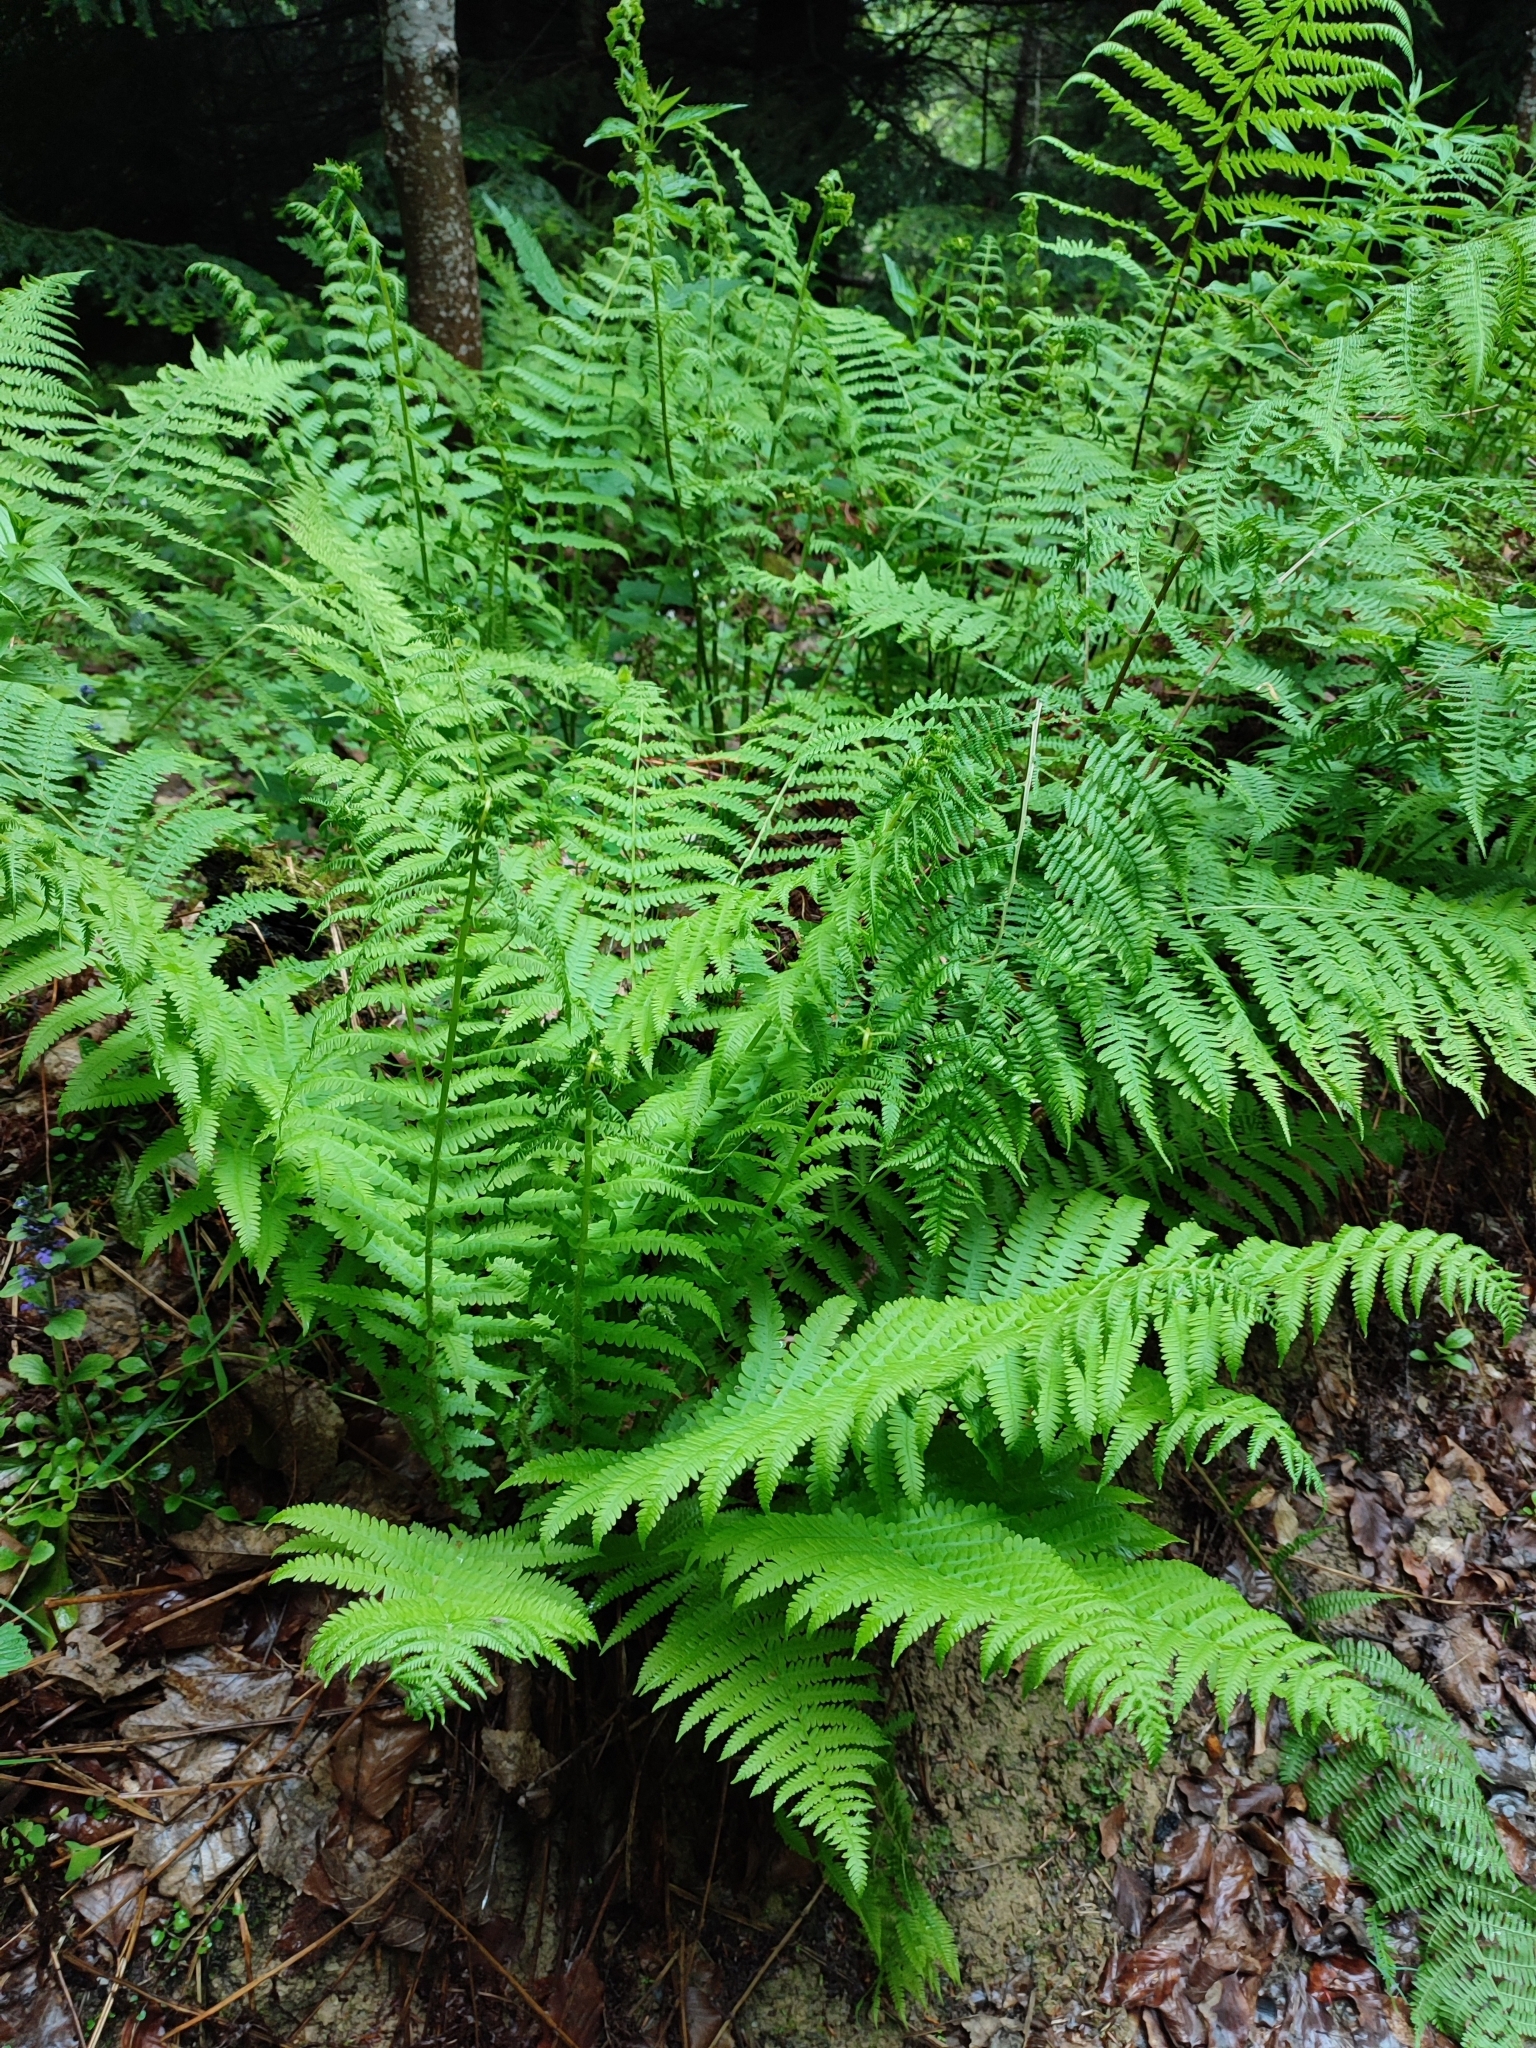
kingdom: Plantae
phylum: Tracheophyta
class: Polypodiopsida
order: Polypodiales
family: Thelypteridaceae
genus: Oreopteris
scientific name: Oreopteris limbosperma
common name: Lemon-scented fern
